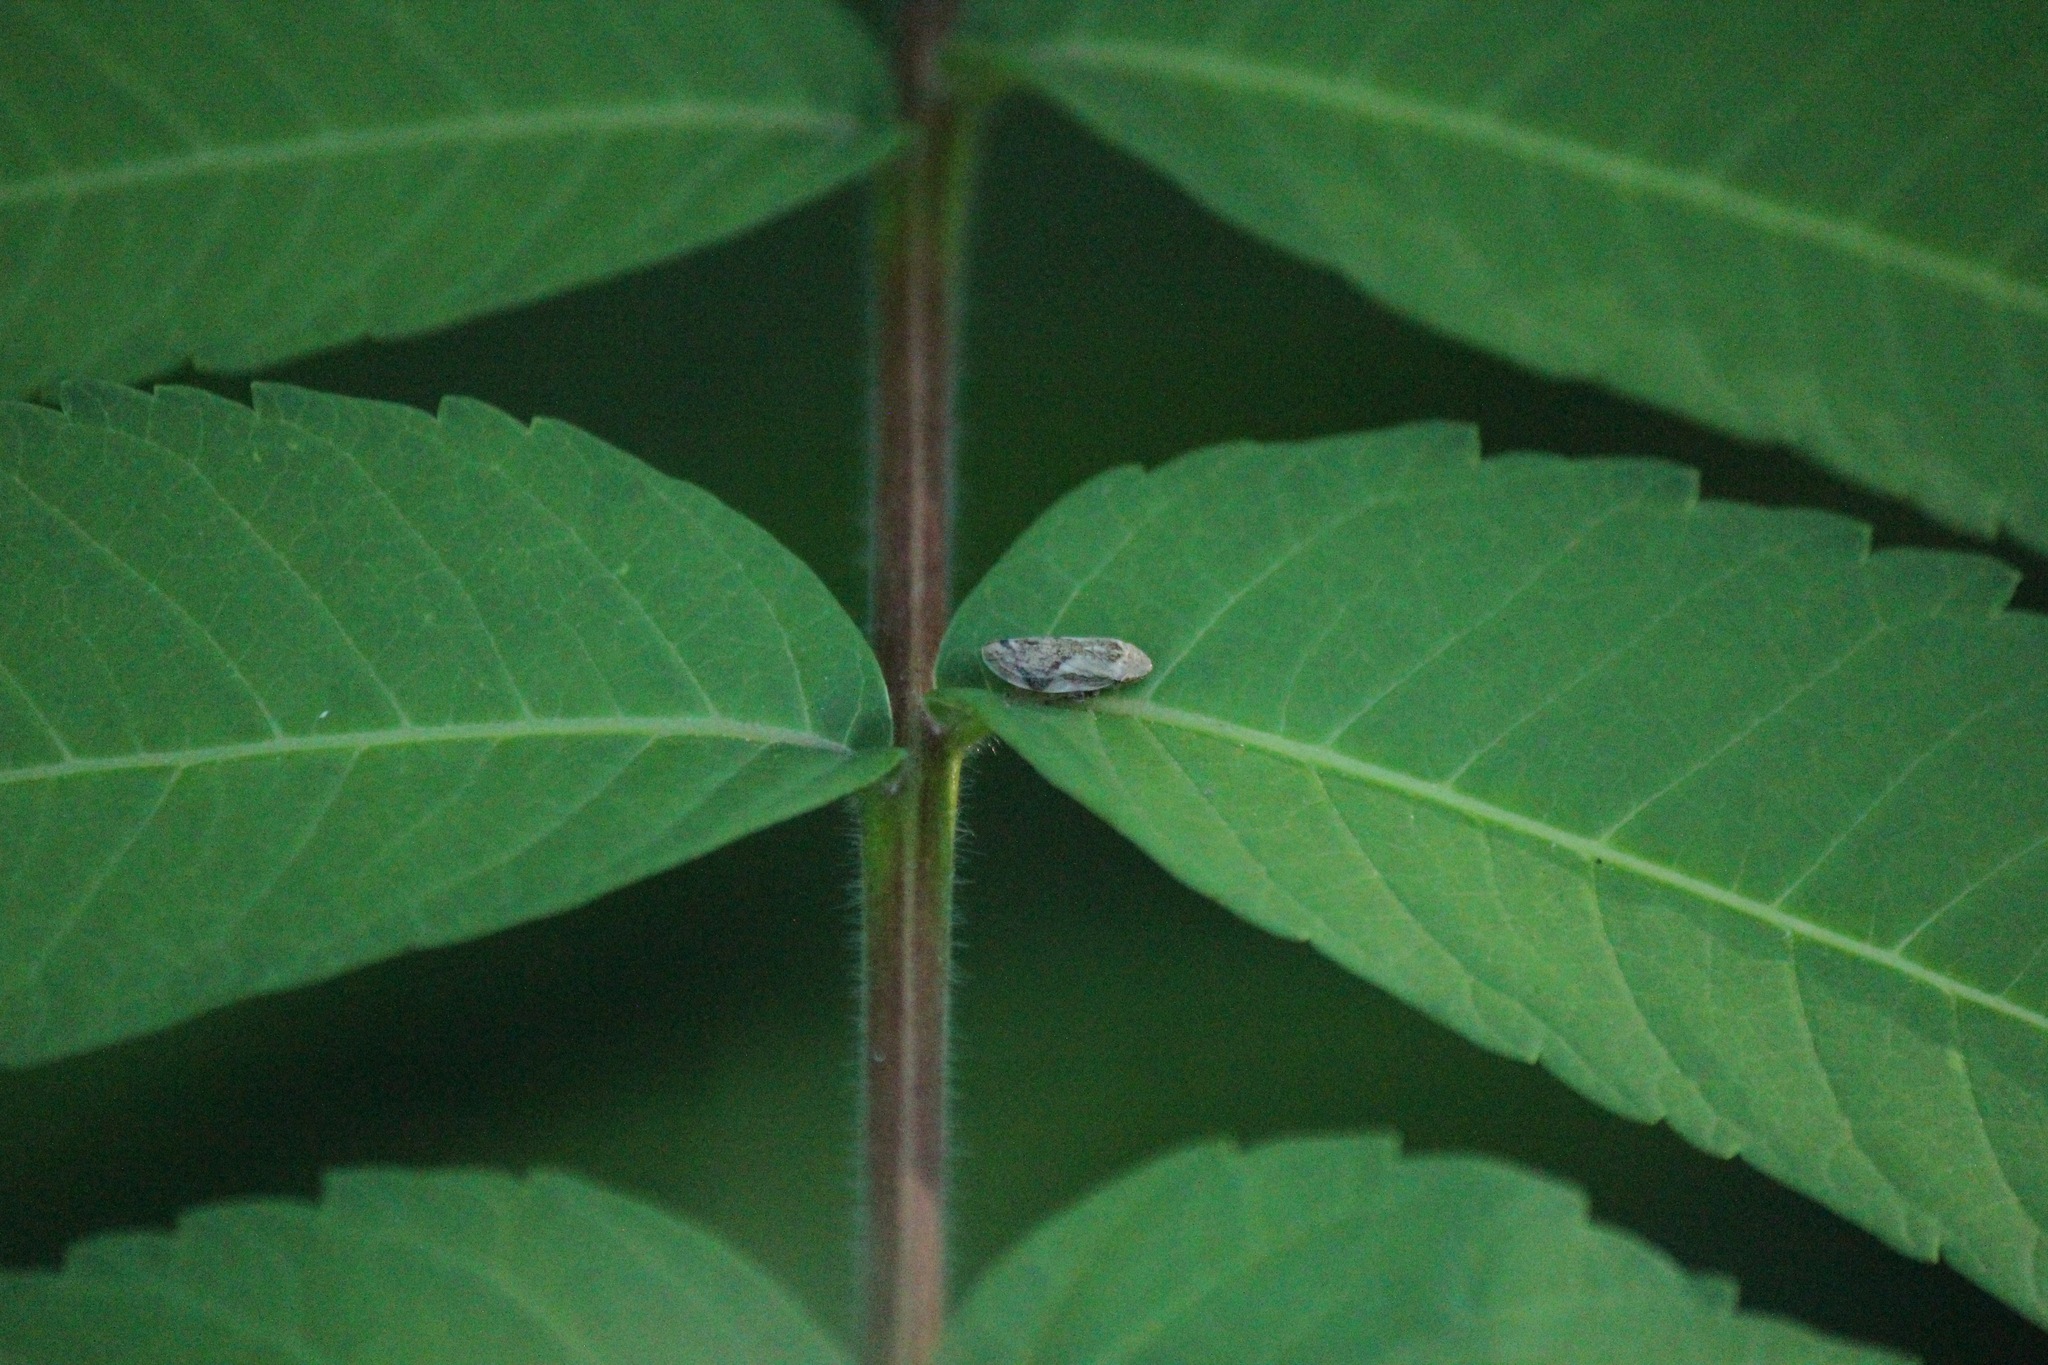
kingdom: Animalia
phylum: Arthropoda
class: Insecta
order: Hemiptera
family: Aphrophoridae
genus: Philaenus
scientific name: Philaenus spumarius
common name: Meadow spittlebug
